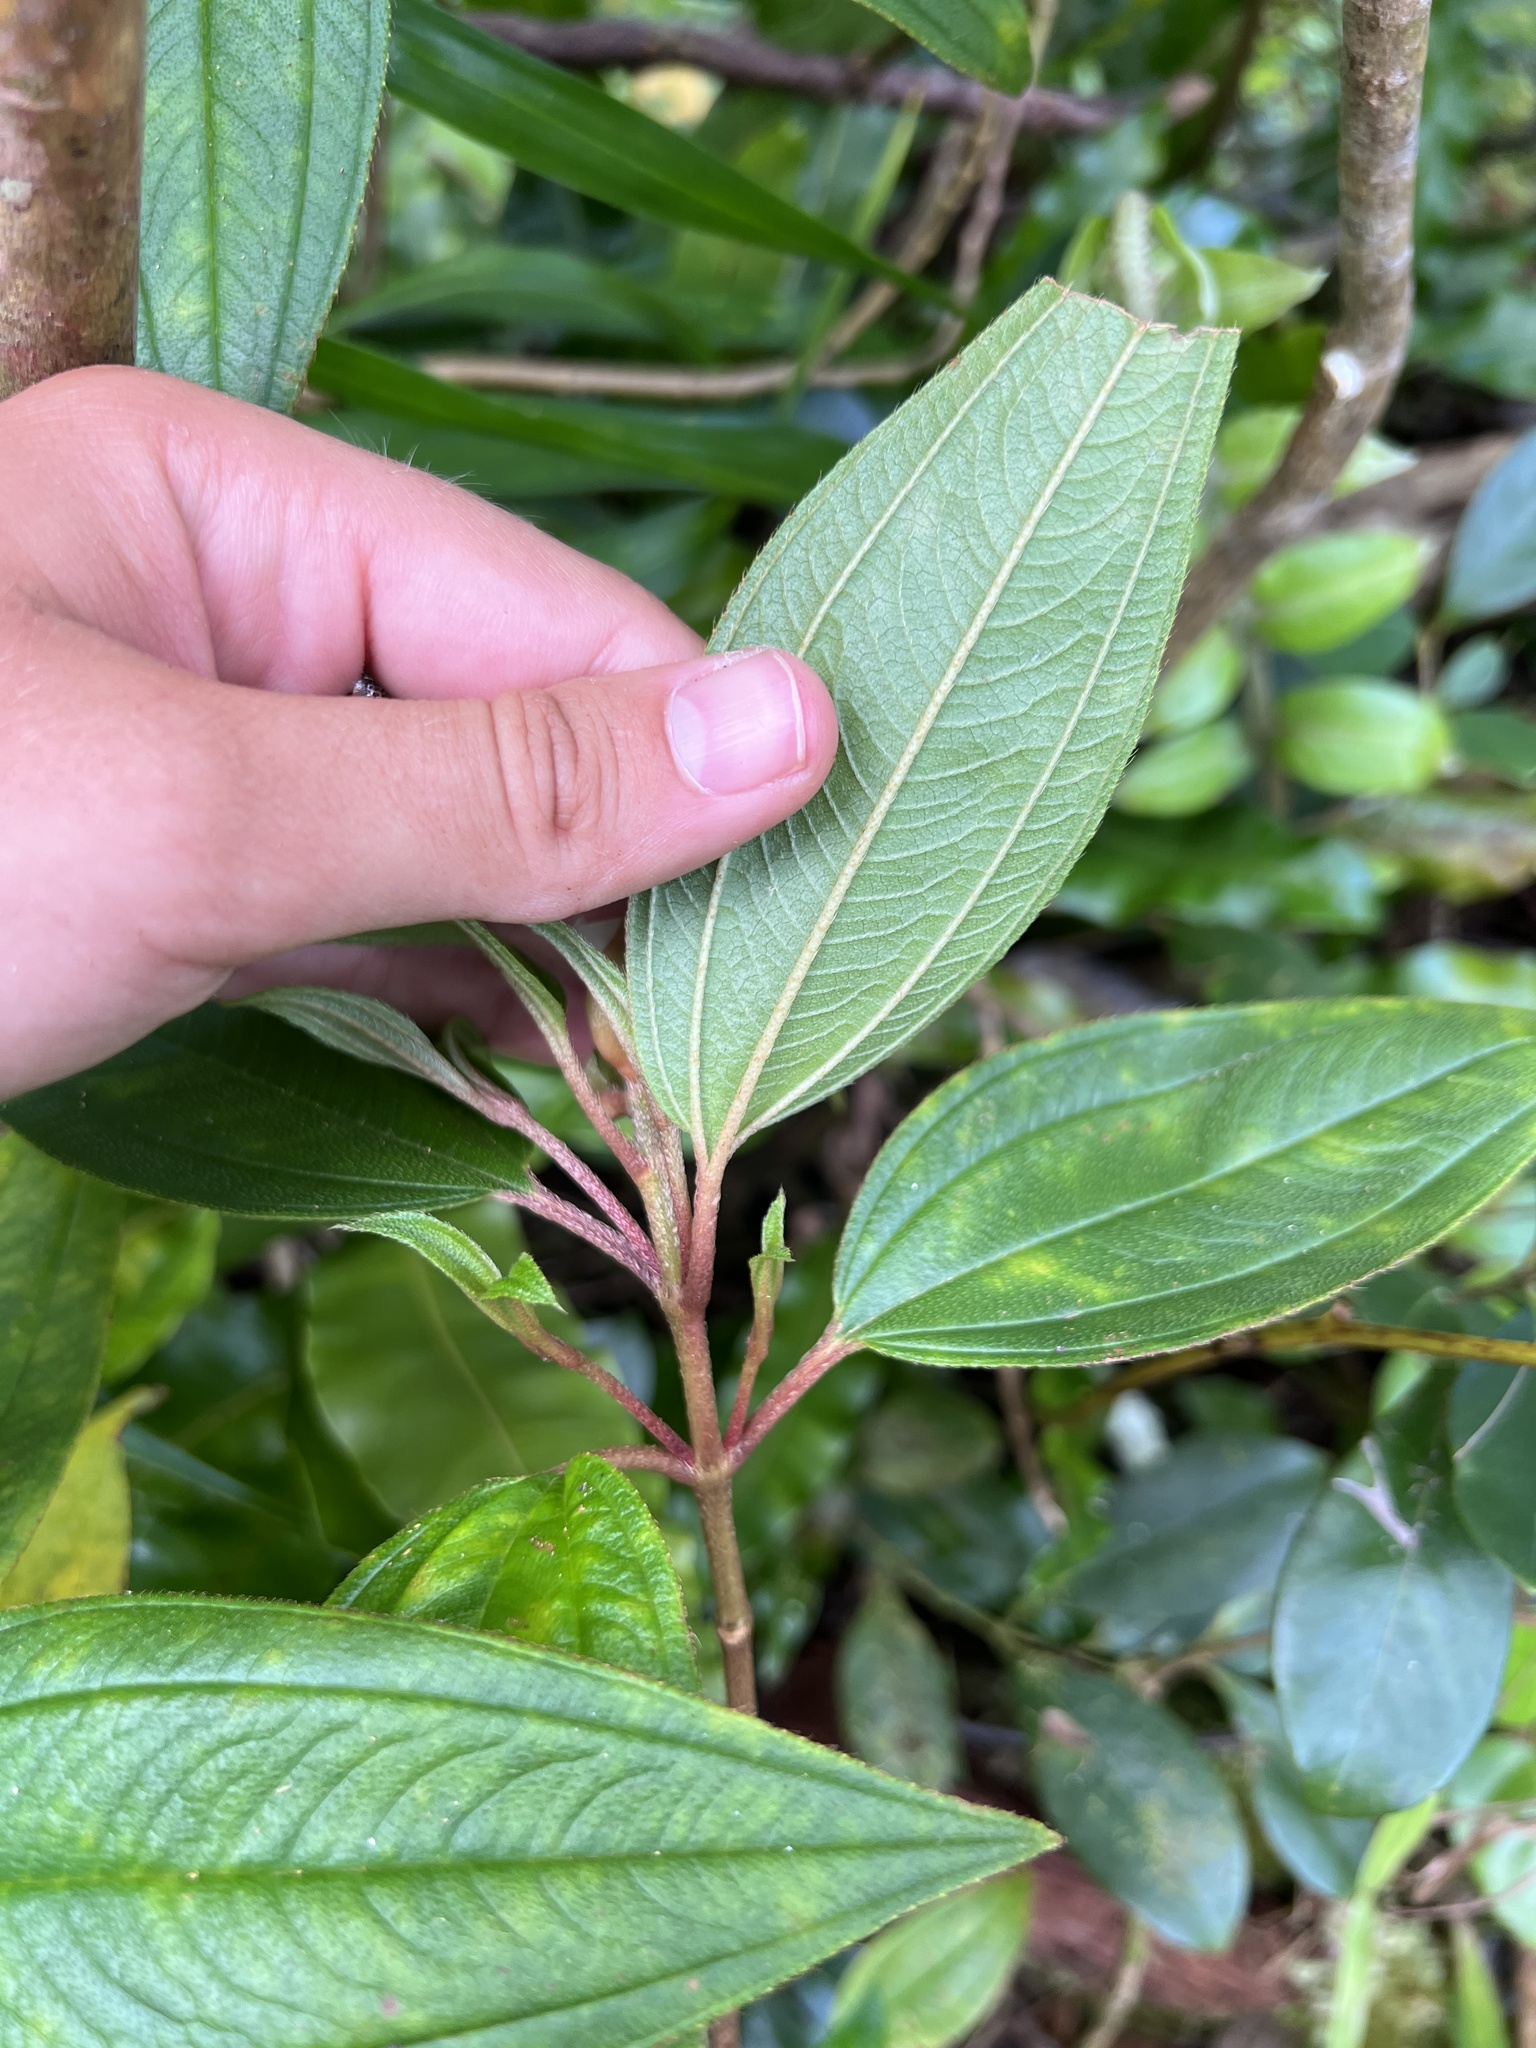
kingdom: Plantae
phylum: Tracheophyta
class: Magnoliopsida
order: Myrtales
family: Melastomataceae
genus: Melastoma
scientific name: Melastoma denticulatum
